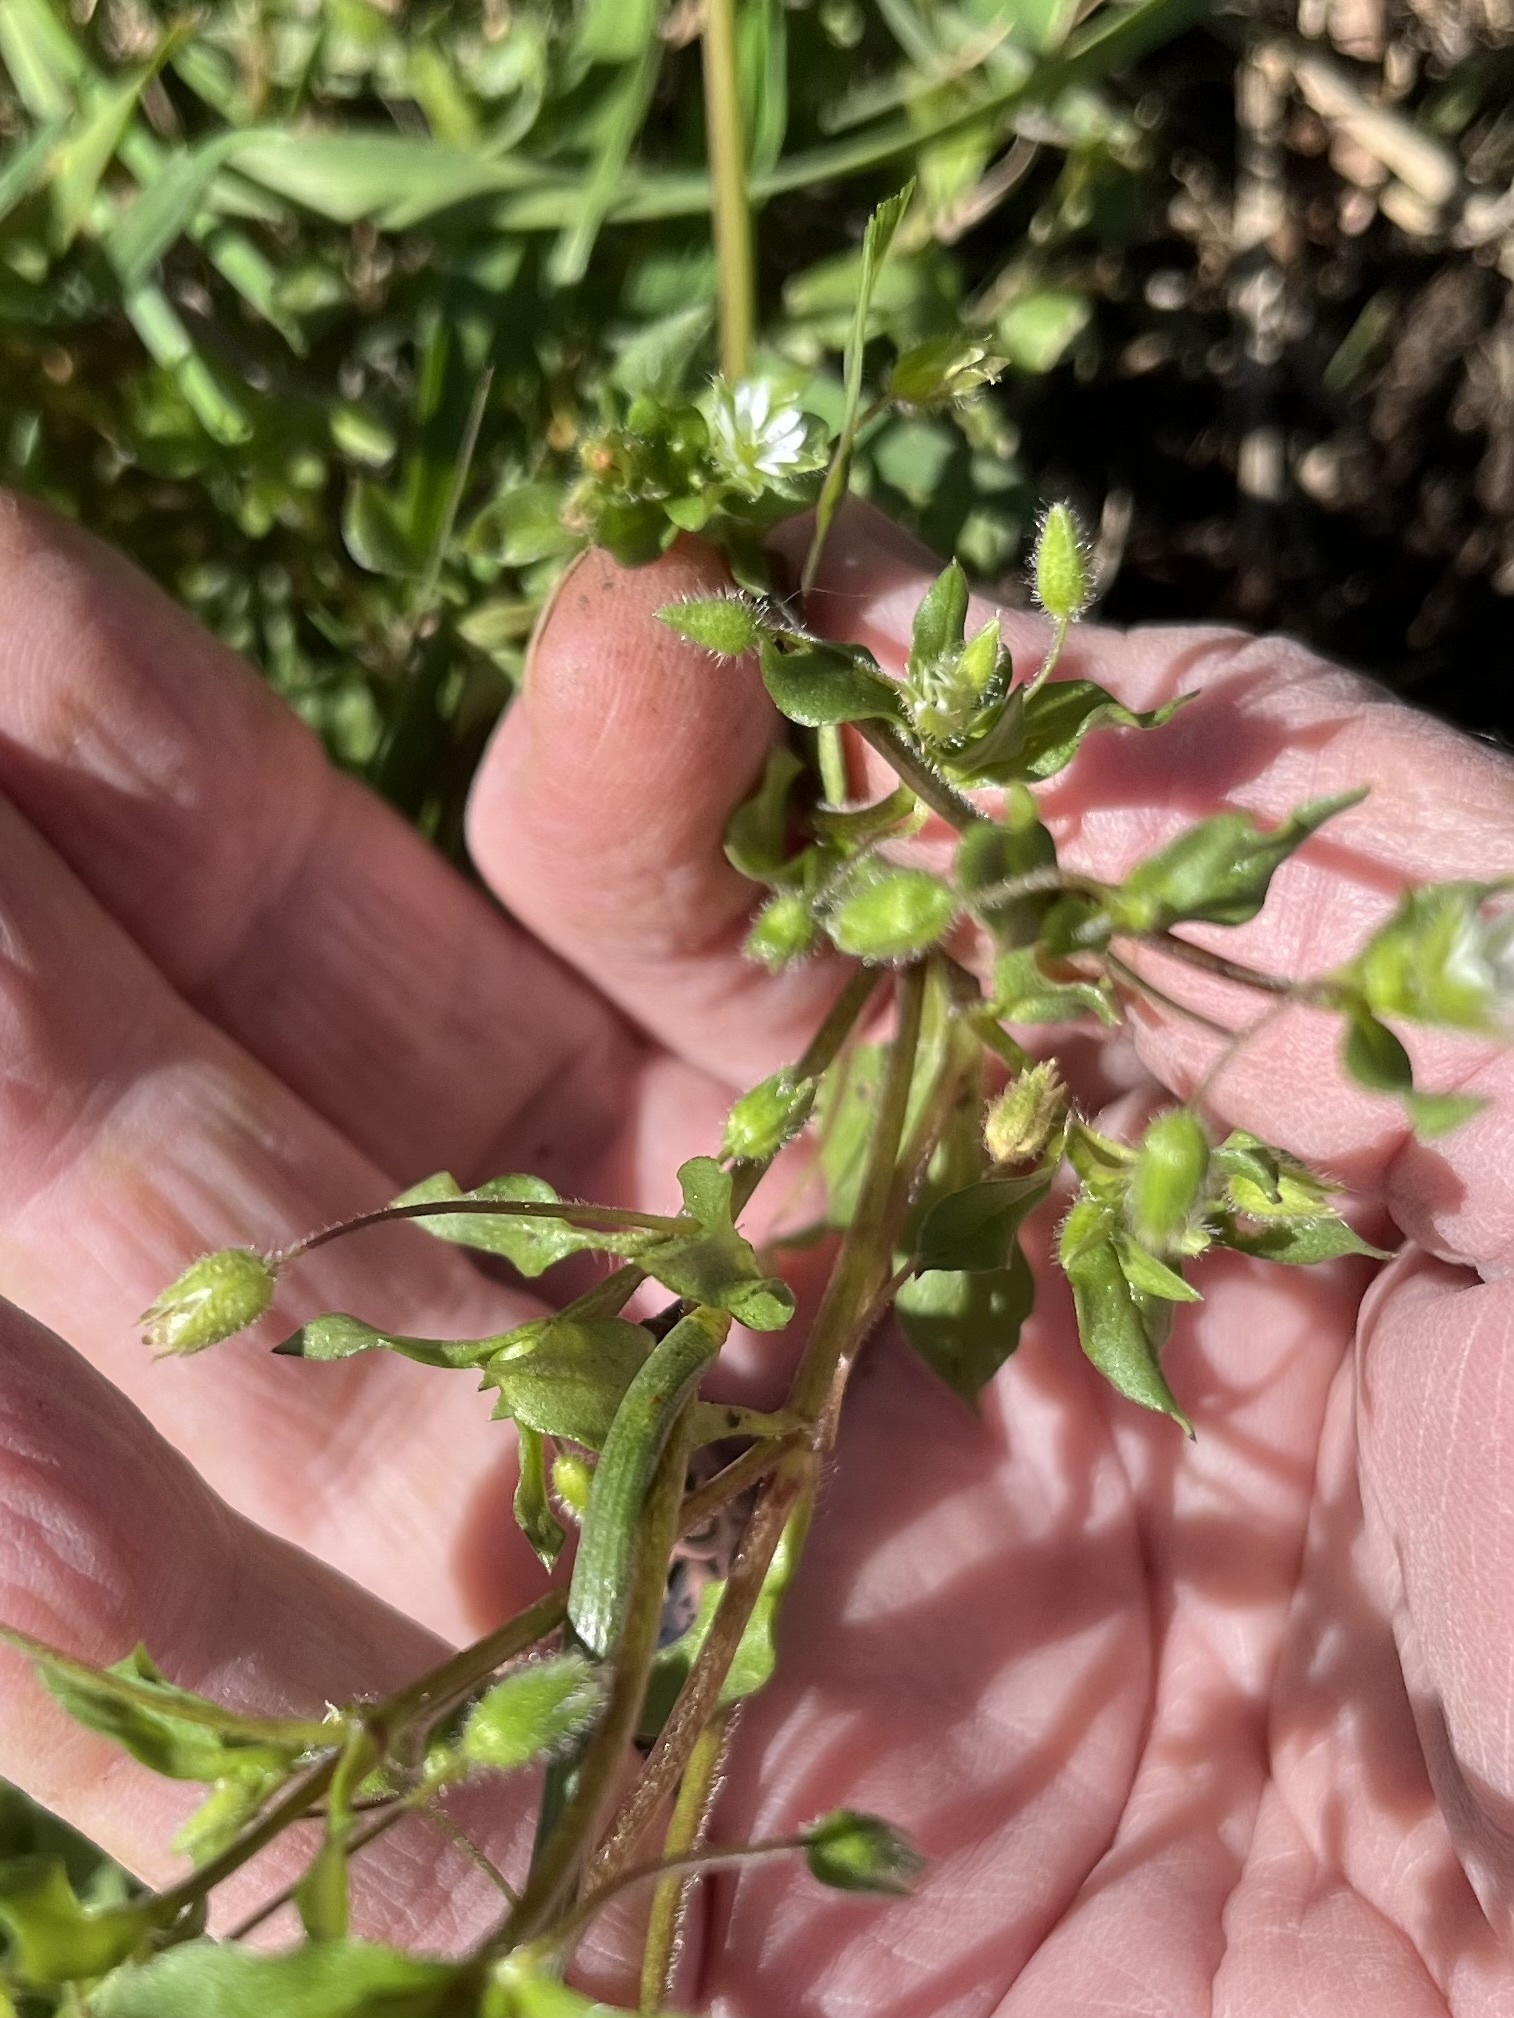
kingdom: Plantae
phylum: Tracheophyta
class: Magnoliopsida
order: Caryophyllales
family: Caryophyllaceae
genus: Stellaria
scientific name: Stellaria media
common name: Common chickweed
